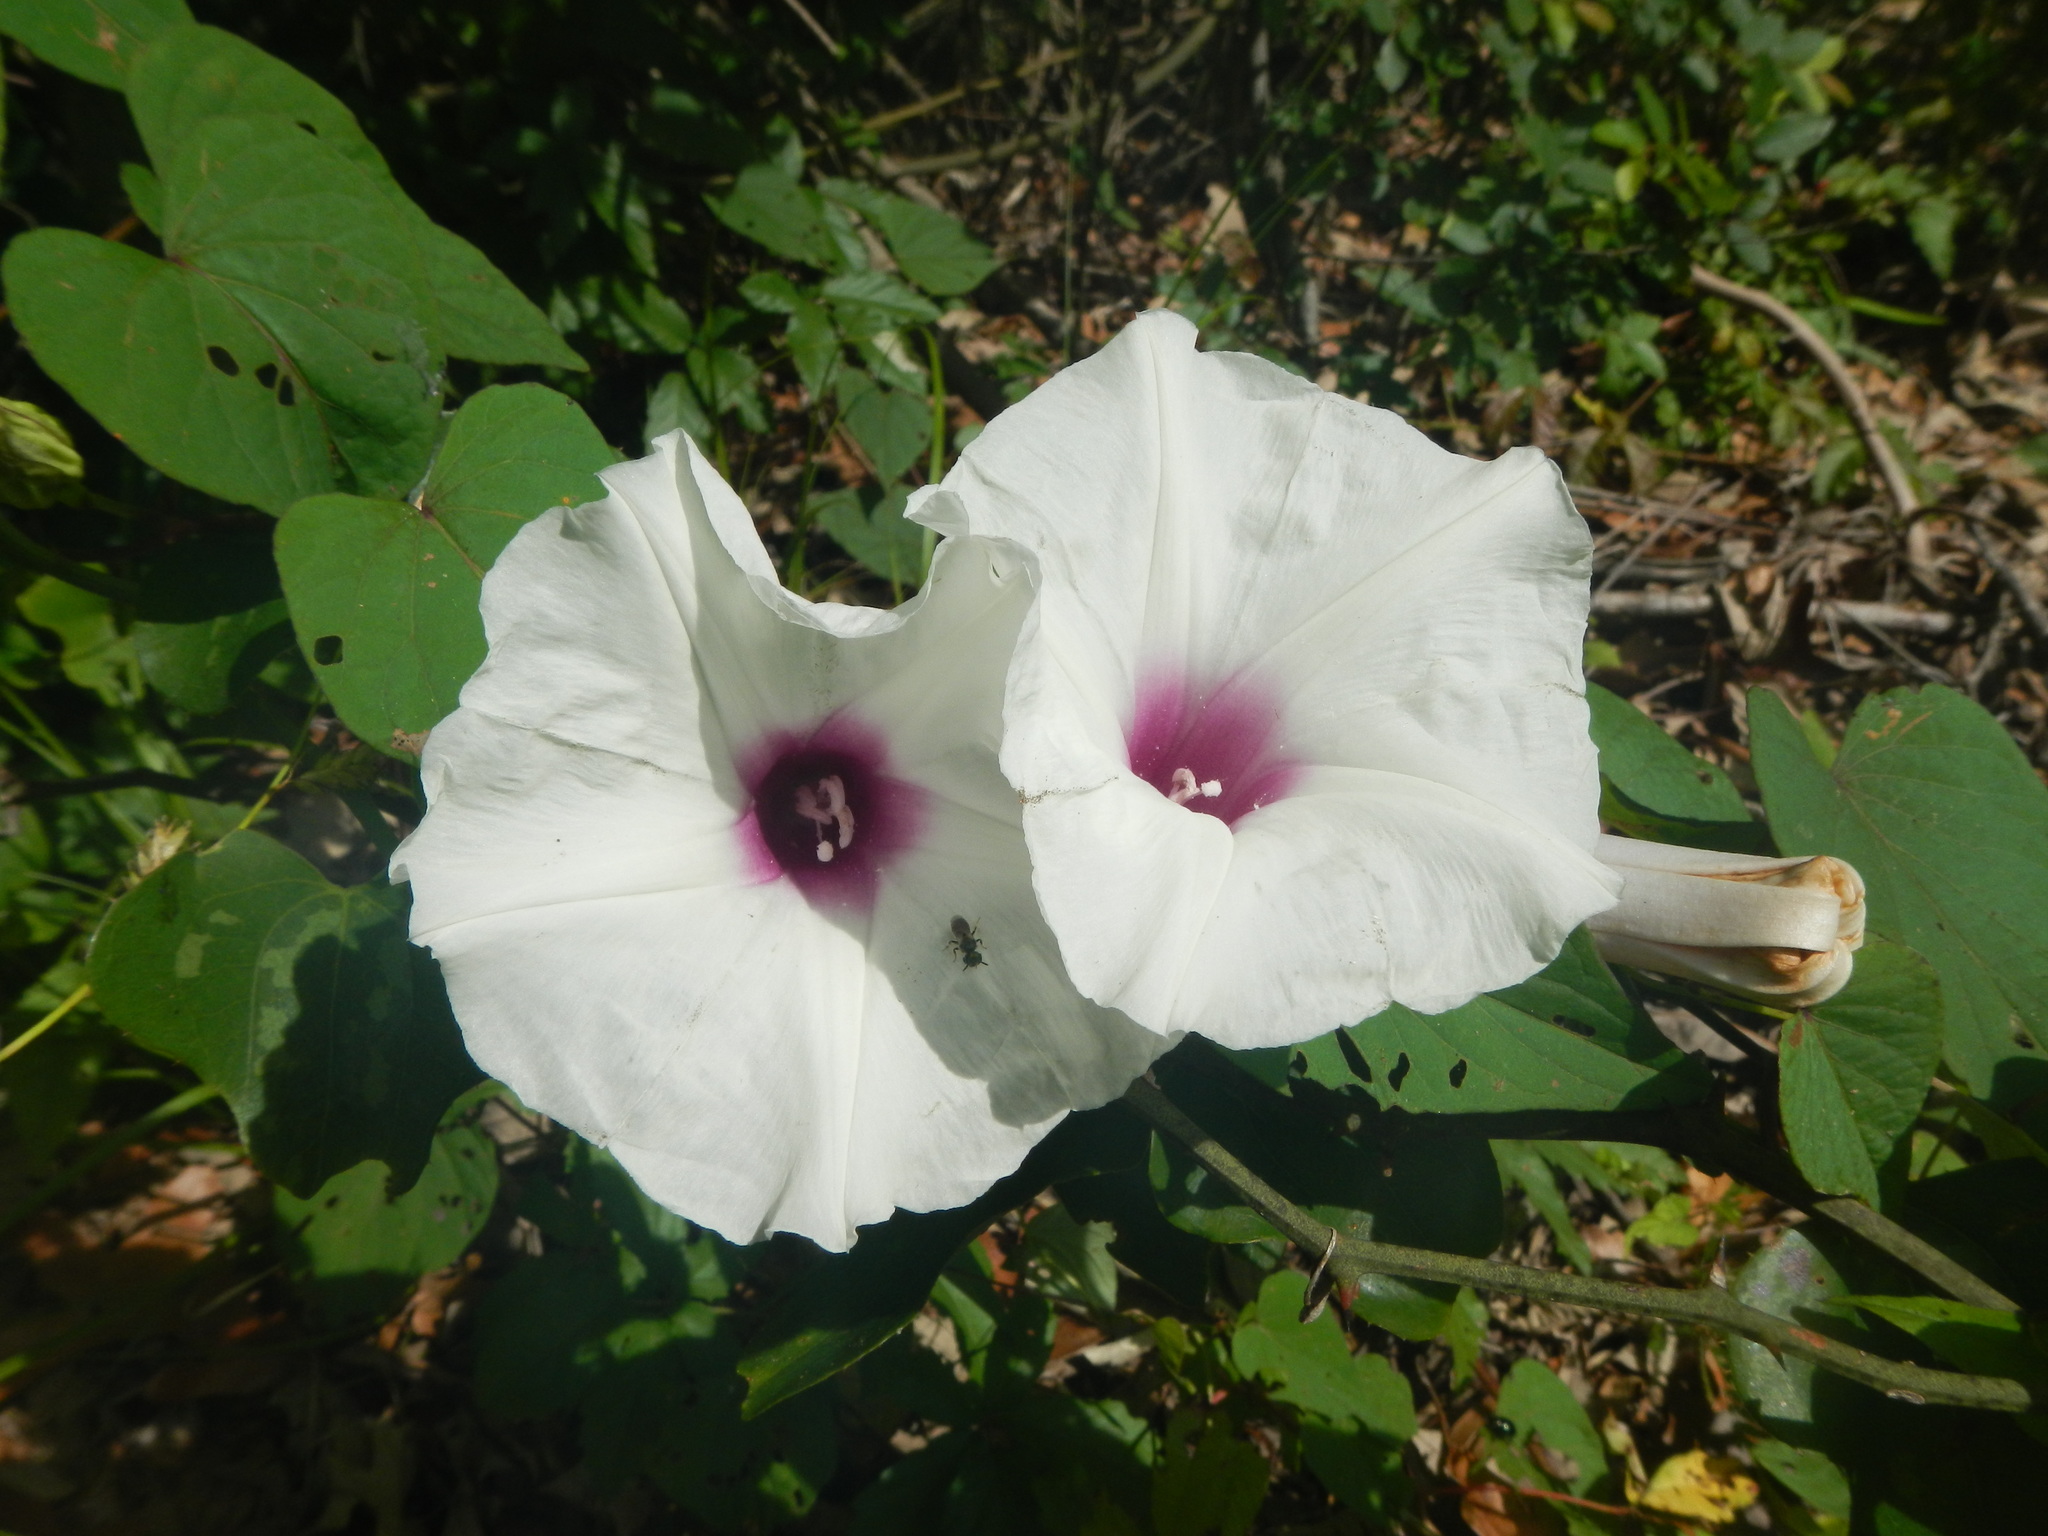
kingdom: Plantae
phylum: Tracheophyta
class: Magnoliopsida
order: Solanales
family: Convolvulaceae
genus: Ipomoea
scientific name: Ipomoea pandurata
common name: Man-of-the-earth
